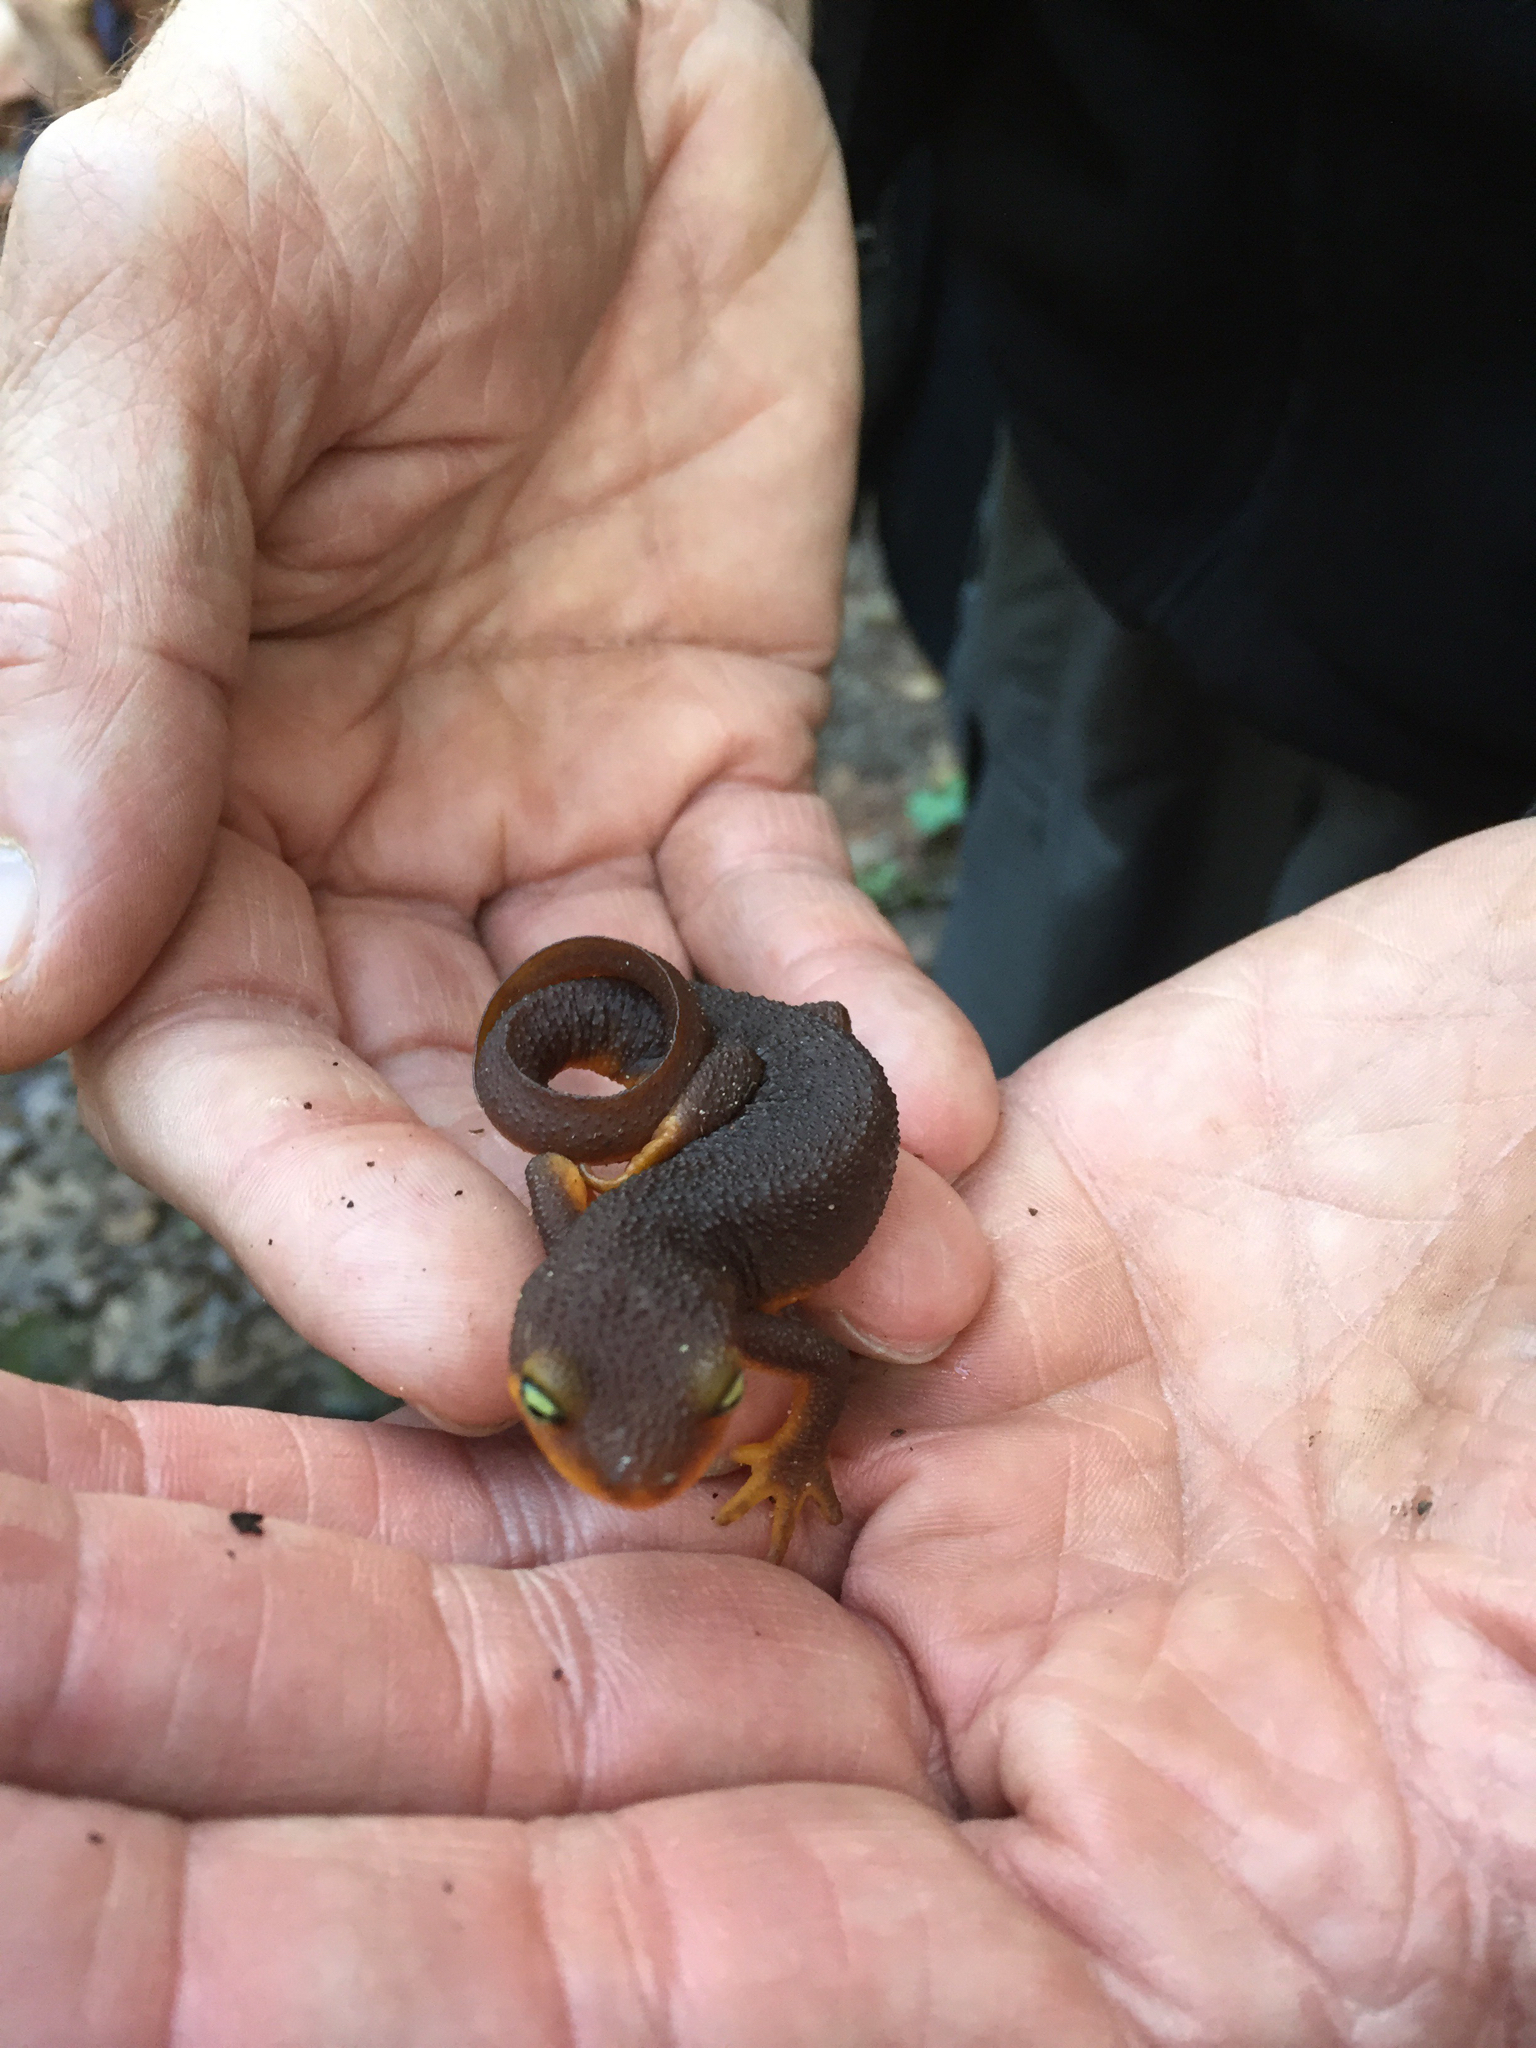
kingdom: Animalia
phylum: Chordata
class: Amphibia
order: Caudata
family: Salamandridae
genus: Taricha
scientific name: Taricha torosa
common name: California newt
